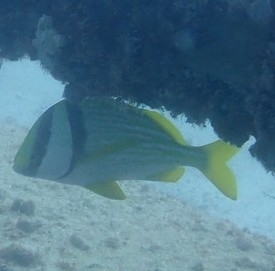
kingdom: Animalia
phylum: Chordata
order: Perciformes
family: Haemulidae
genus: Anisotremus
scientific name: Anisotremus virginicus
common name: Porkfish
